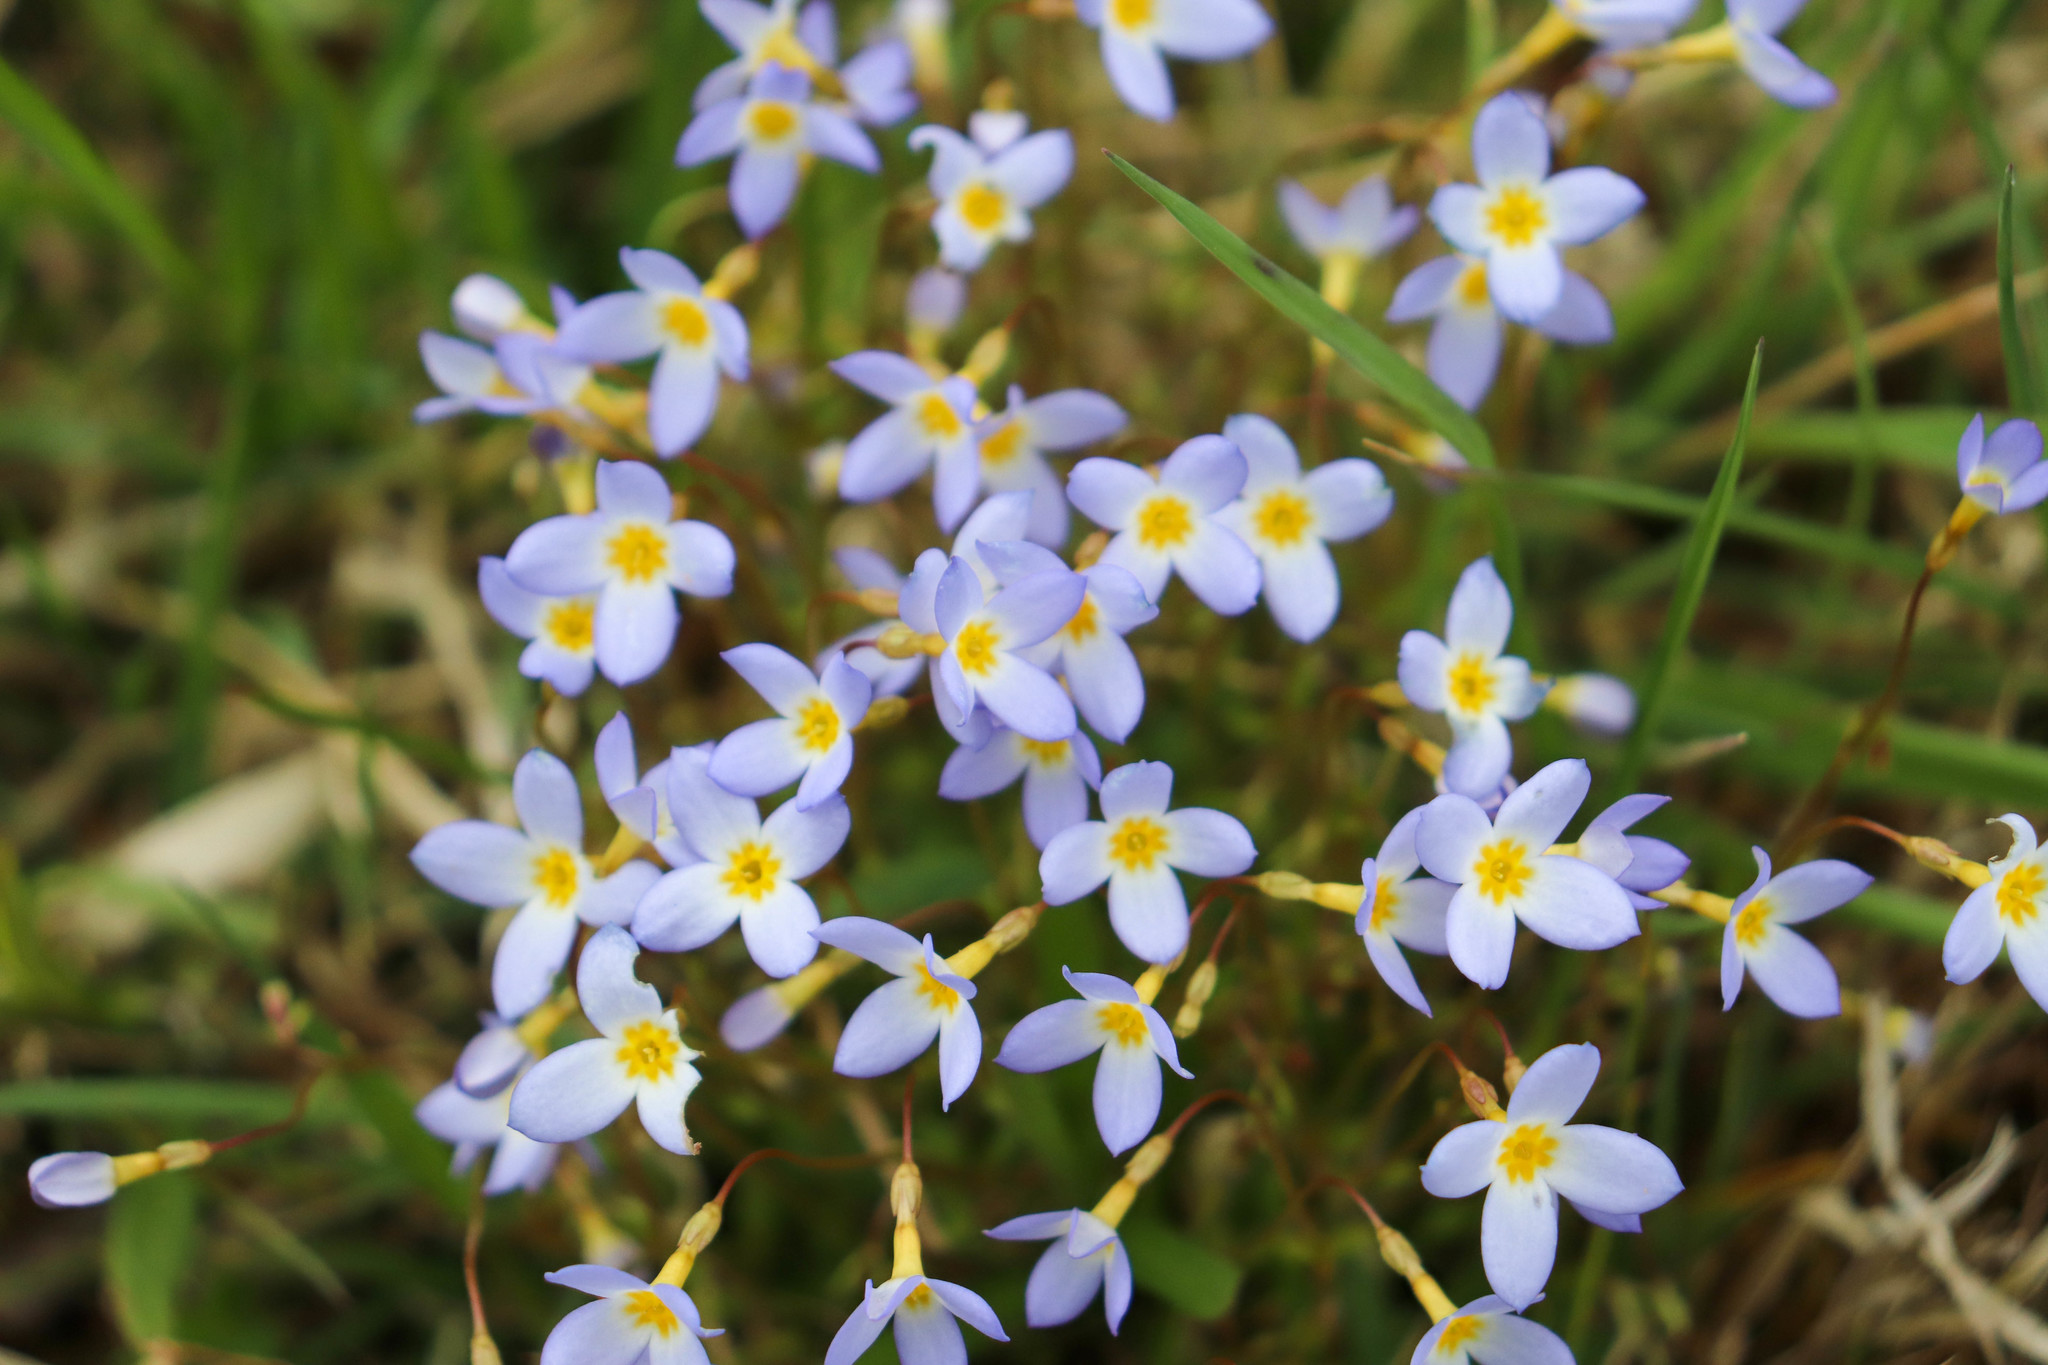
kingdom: Plantae
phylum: Tracheophyta
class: Magnoliopsida
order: Gentianales
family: Rubiaceae
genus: Houstonia
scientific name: Houstonia caerulea
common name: Bluets
